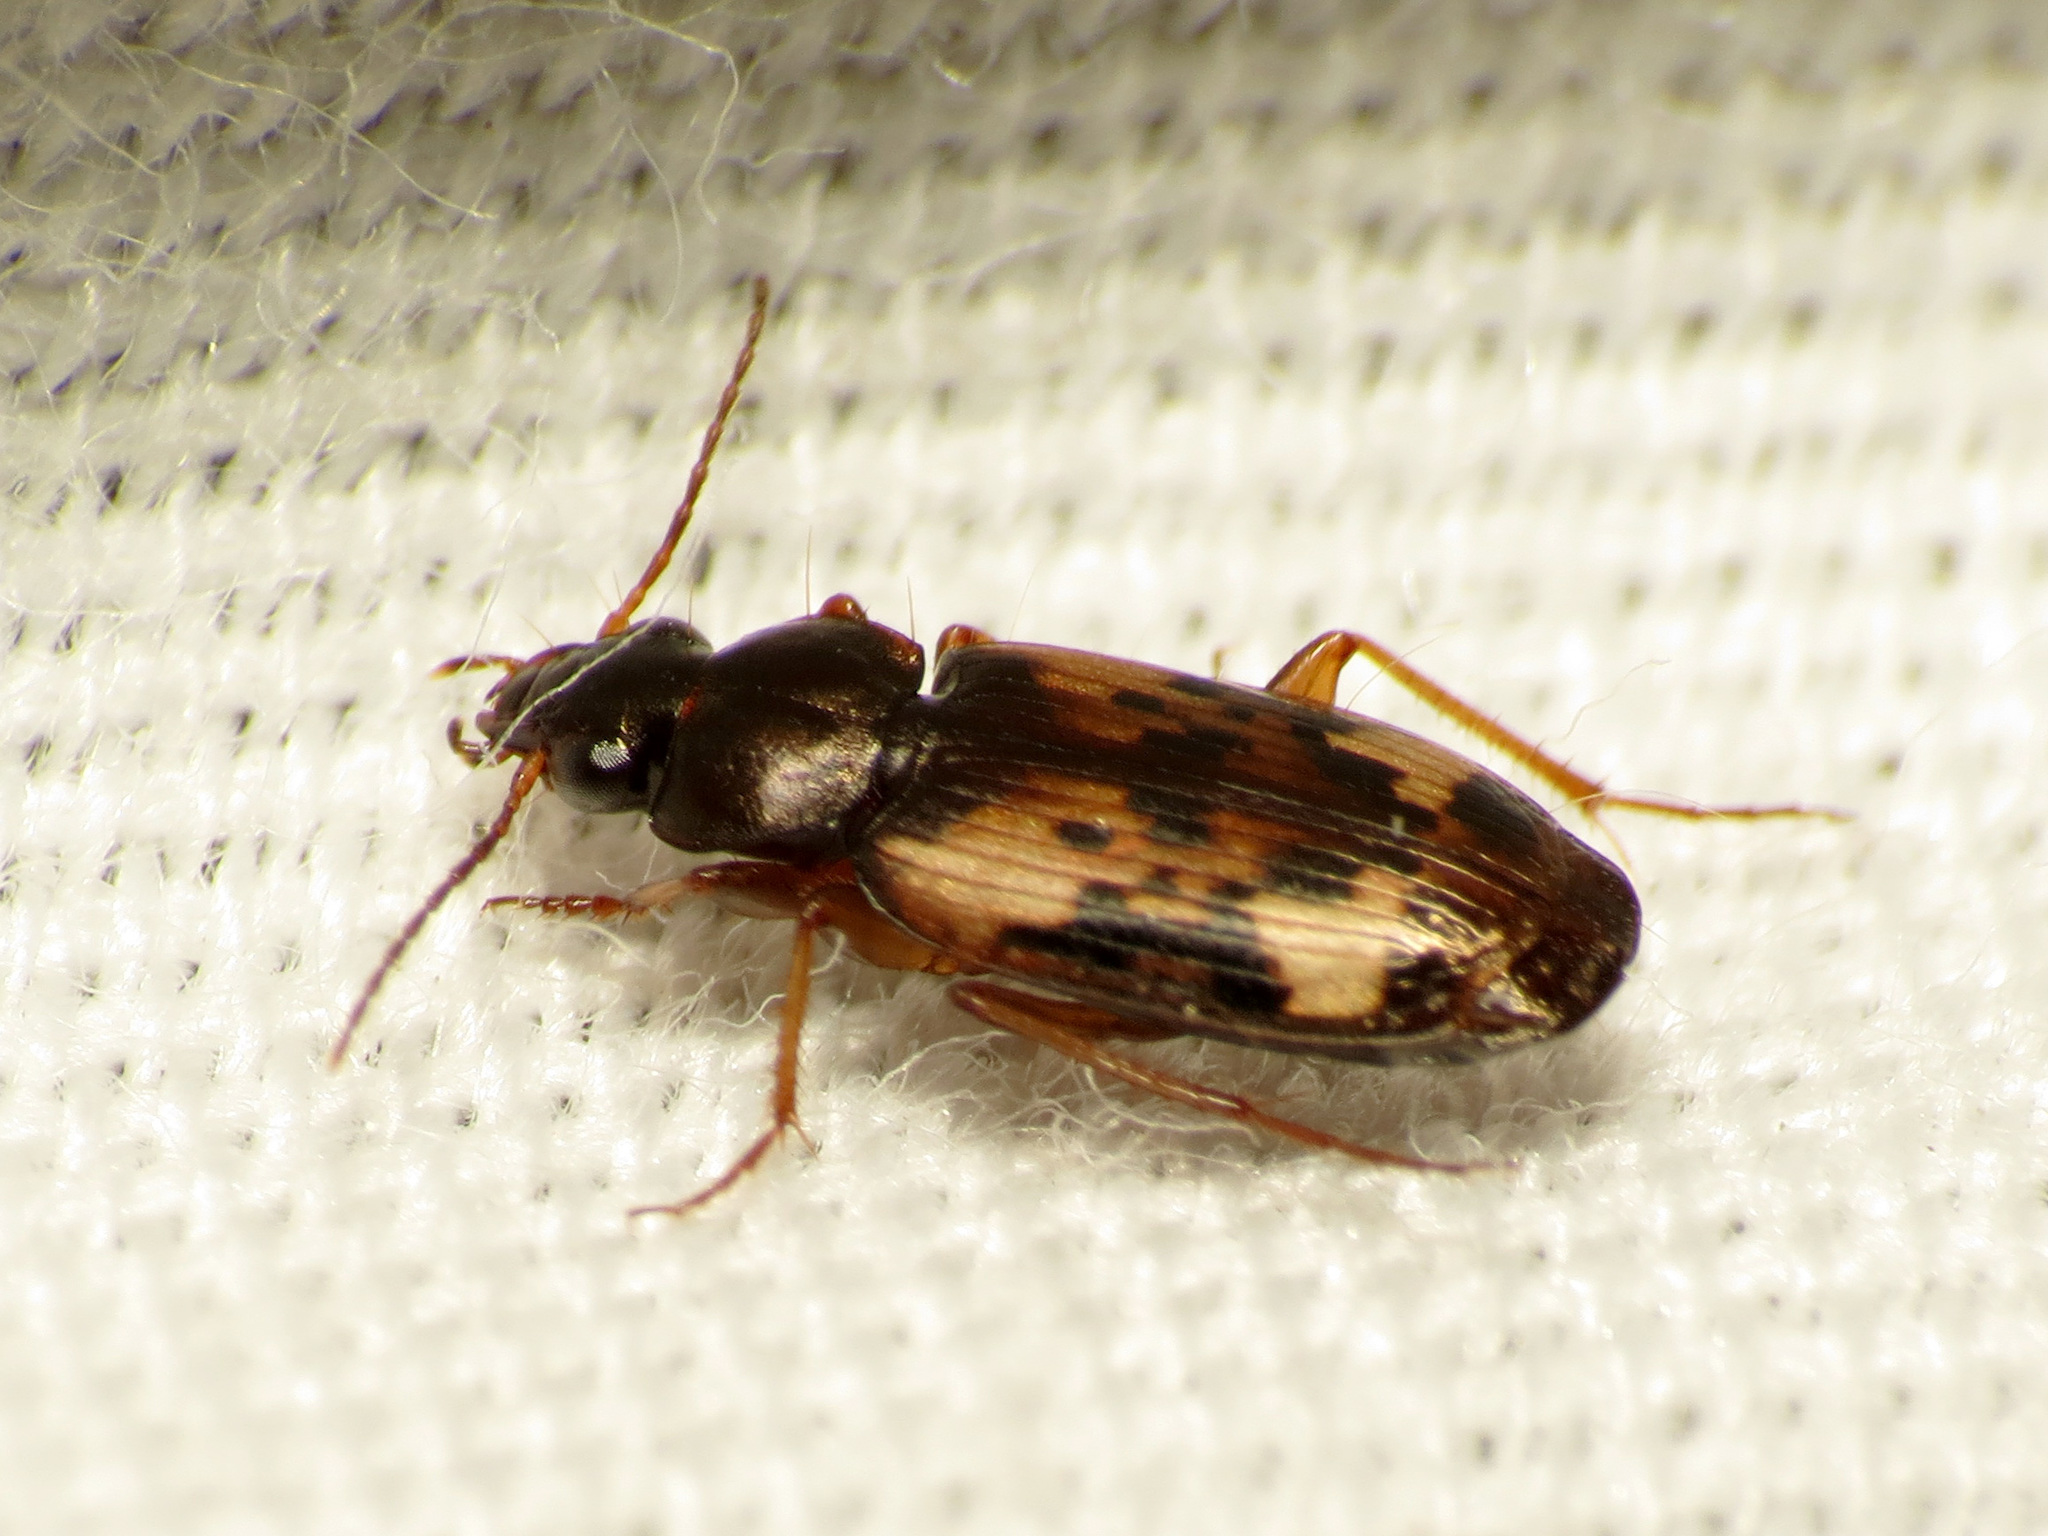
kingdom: Animalia
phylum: Arthropoda
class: Insecta
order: Coleoptera
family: Carabidae
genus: Tetragonoderus
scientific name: Tetragonoderus intersectus
